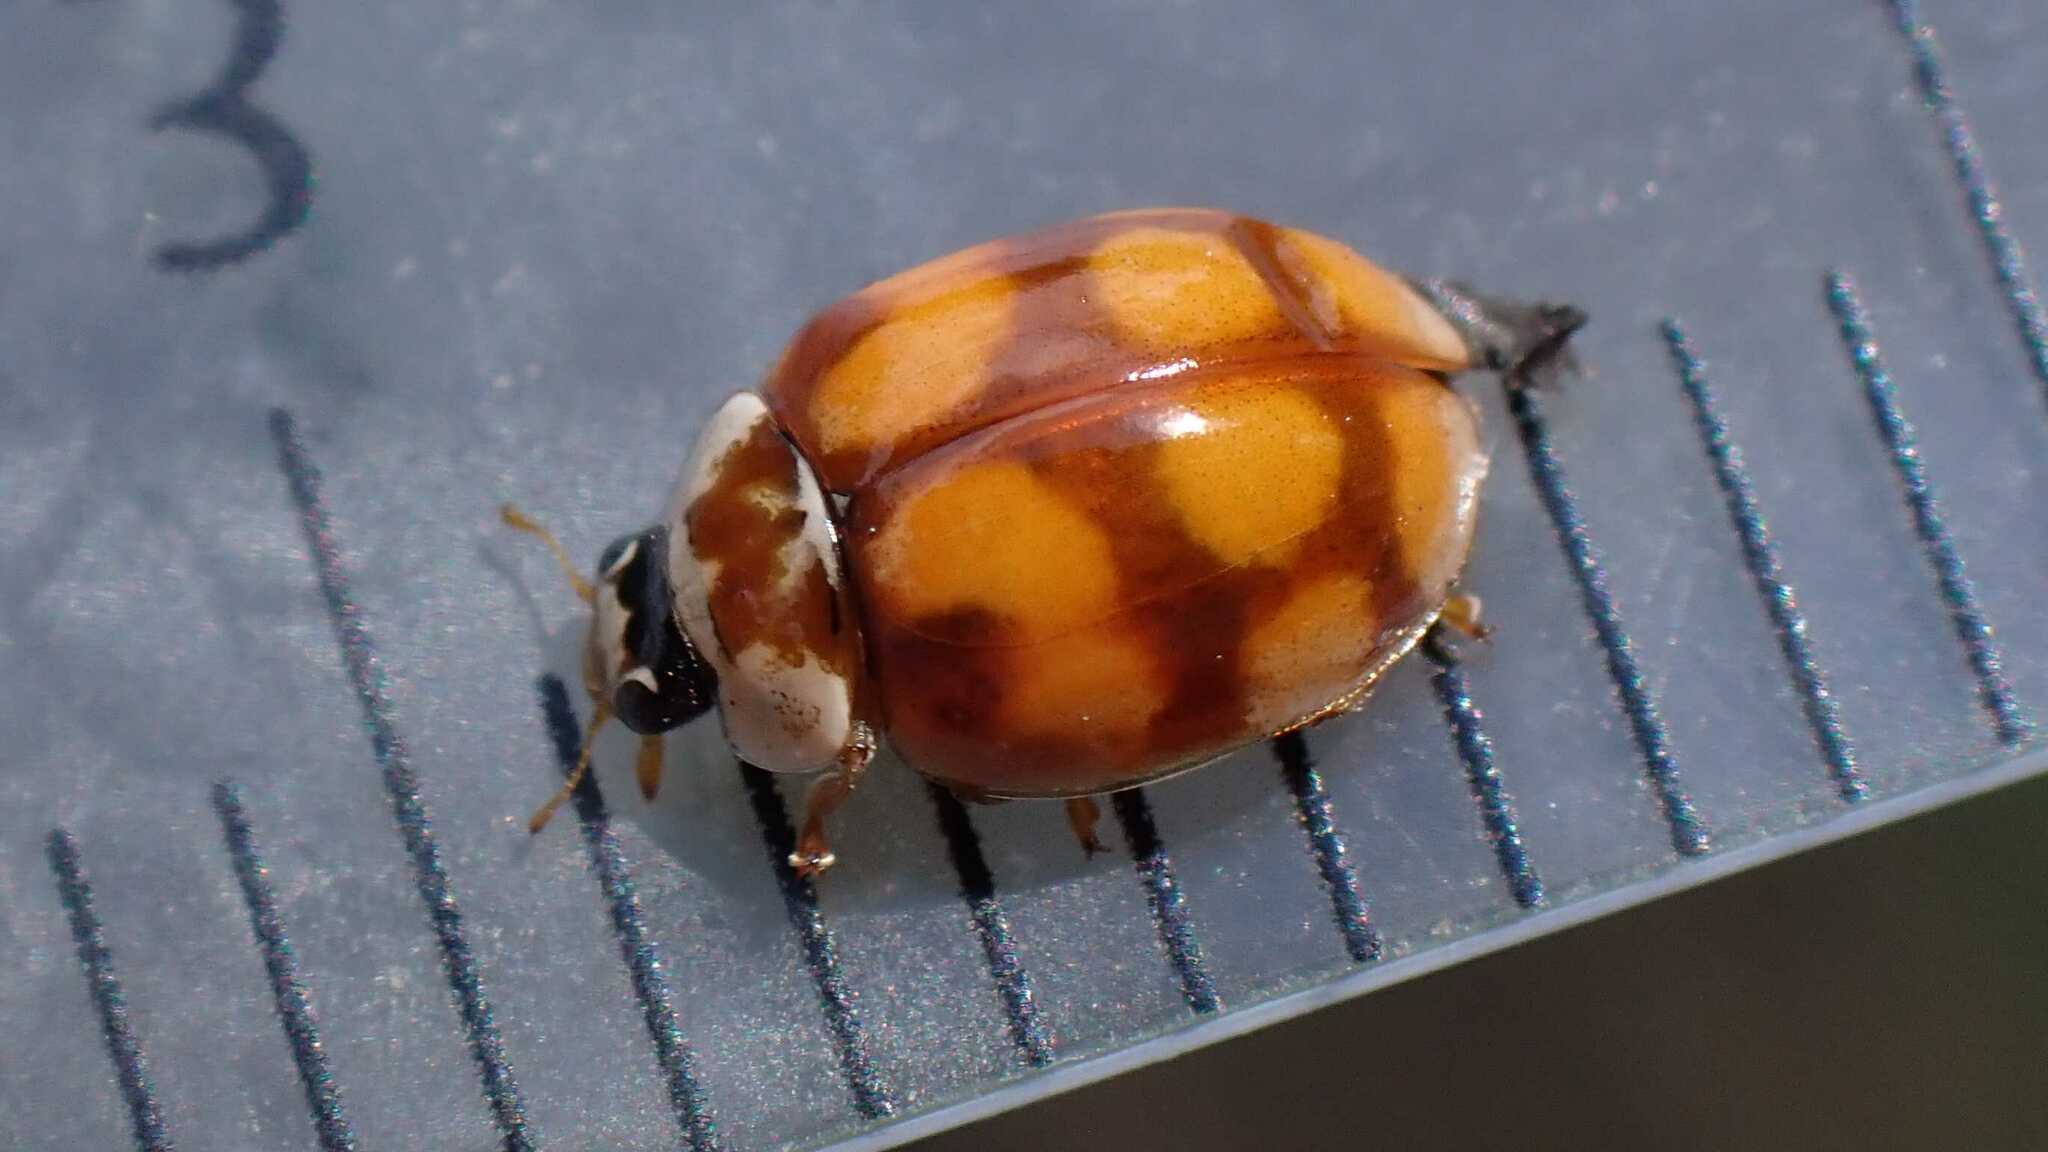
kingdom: Animalia
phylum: Arthropoda
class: Insecta
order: Coleoptera
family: Coccinellidae
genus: Adalia
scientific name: Adalia decempunctata
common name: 10-spot ladybird
